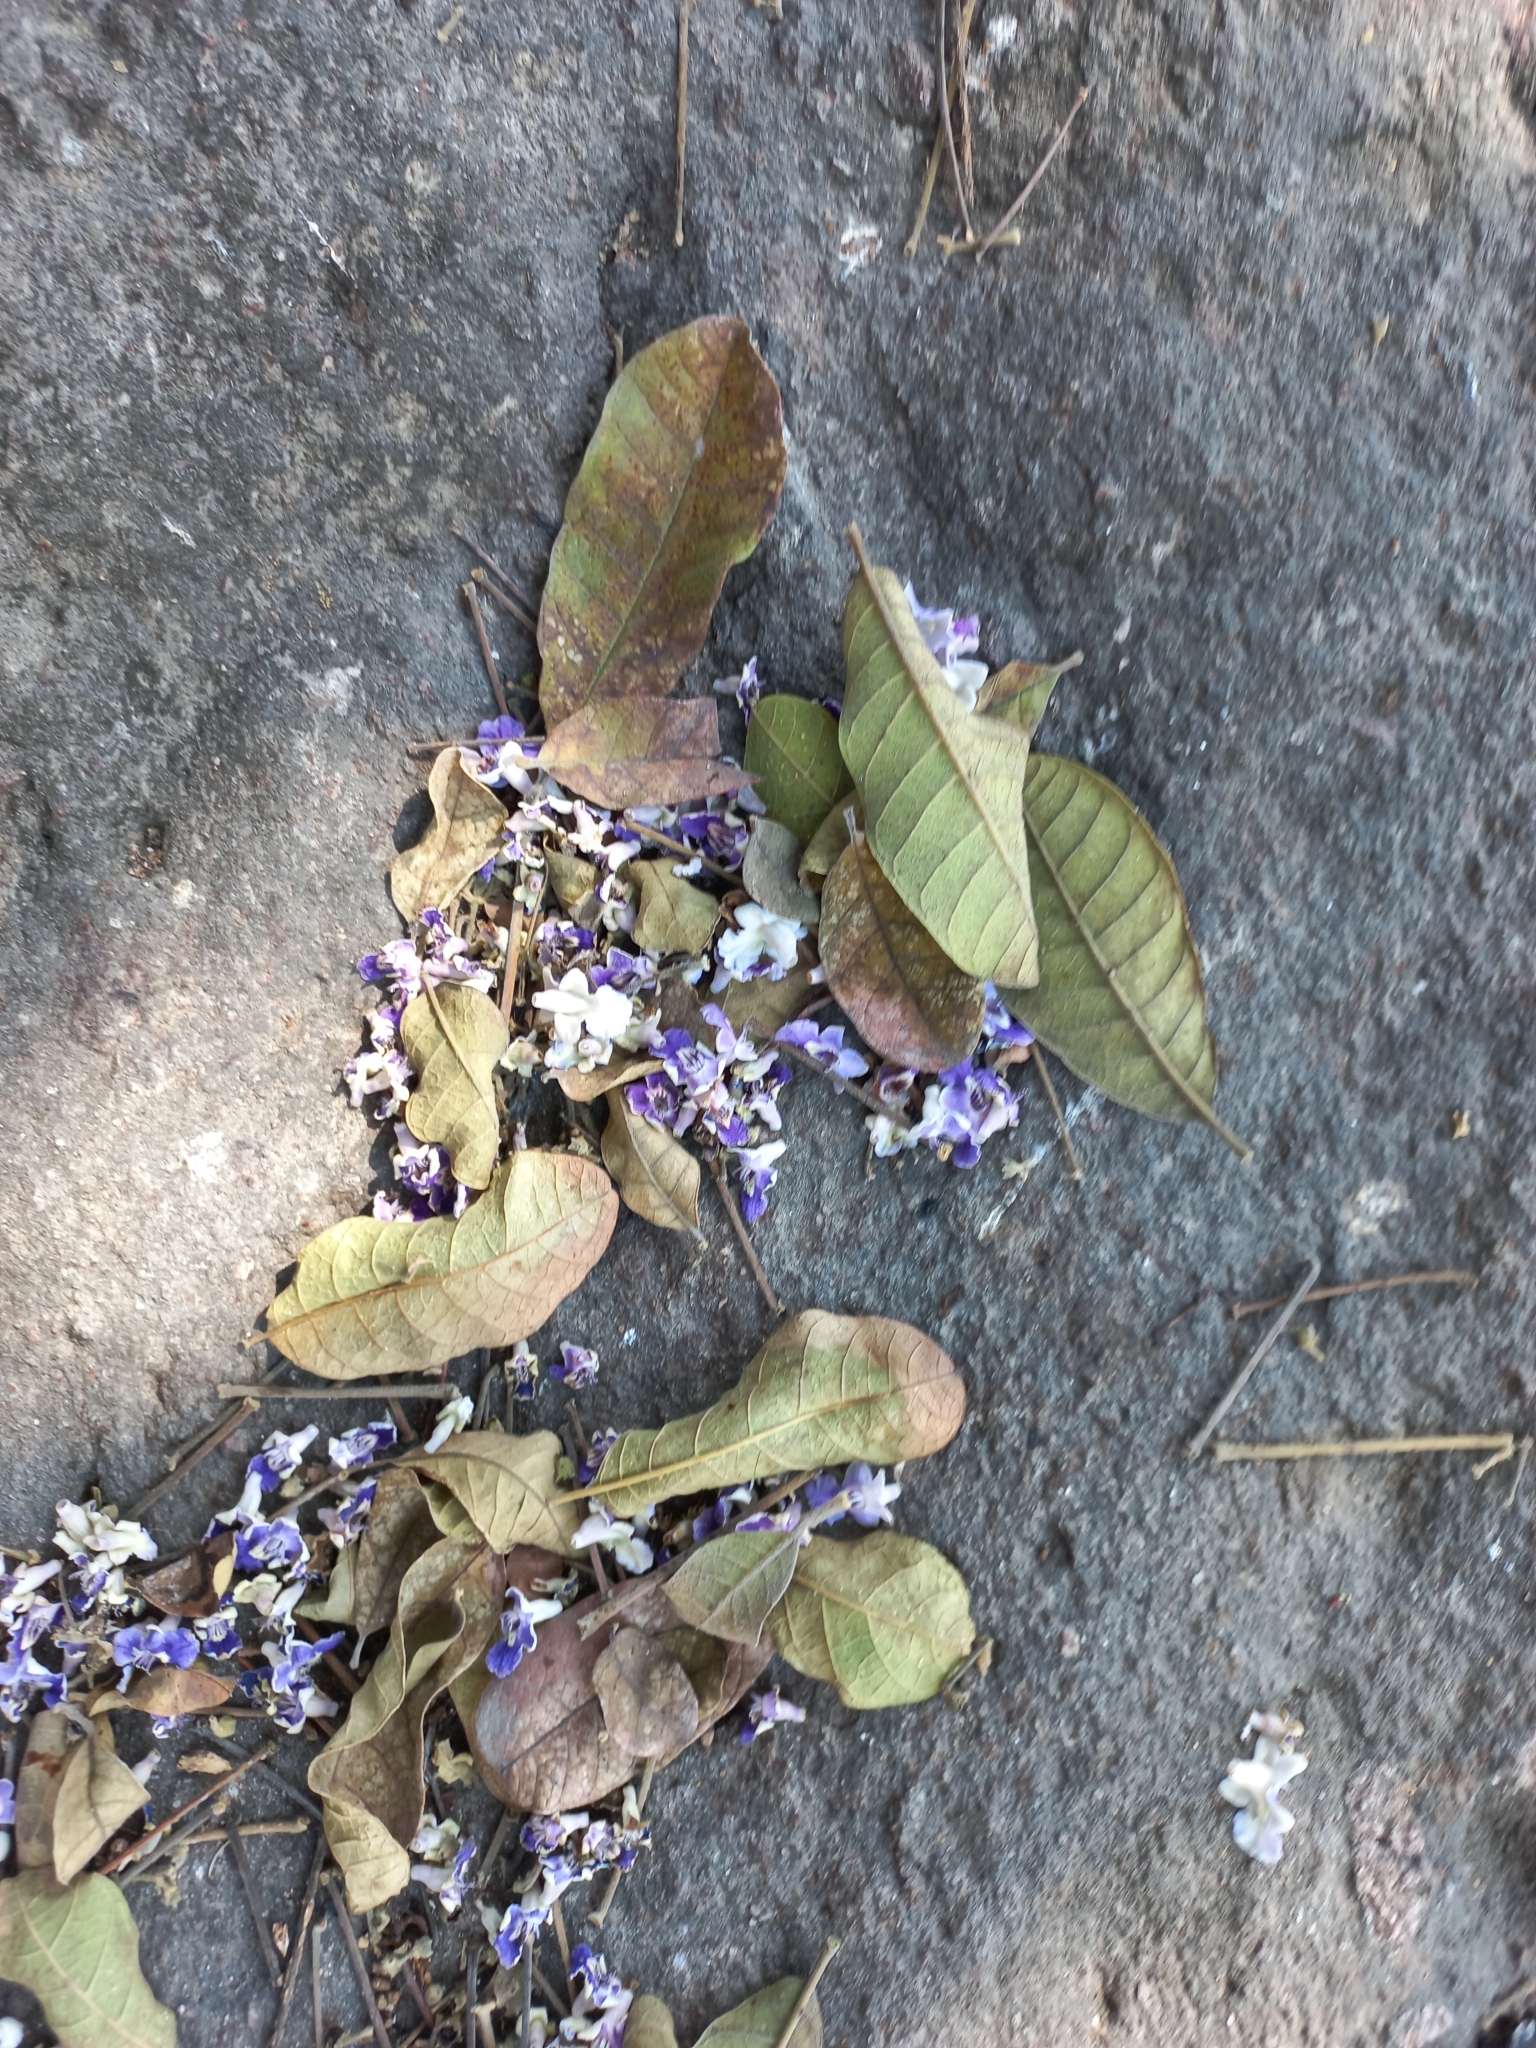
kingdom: Plantae
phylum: Tracheophyta
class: Magnoliopsida
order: Lamiales
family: Lamiaceae
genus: Vitex
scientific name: Vitex mollis
